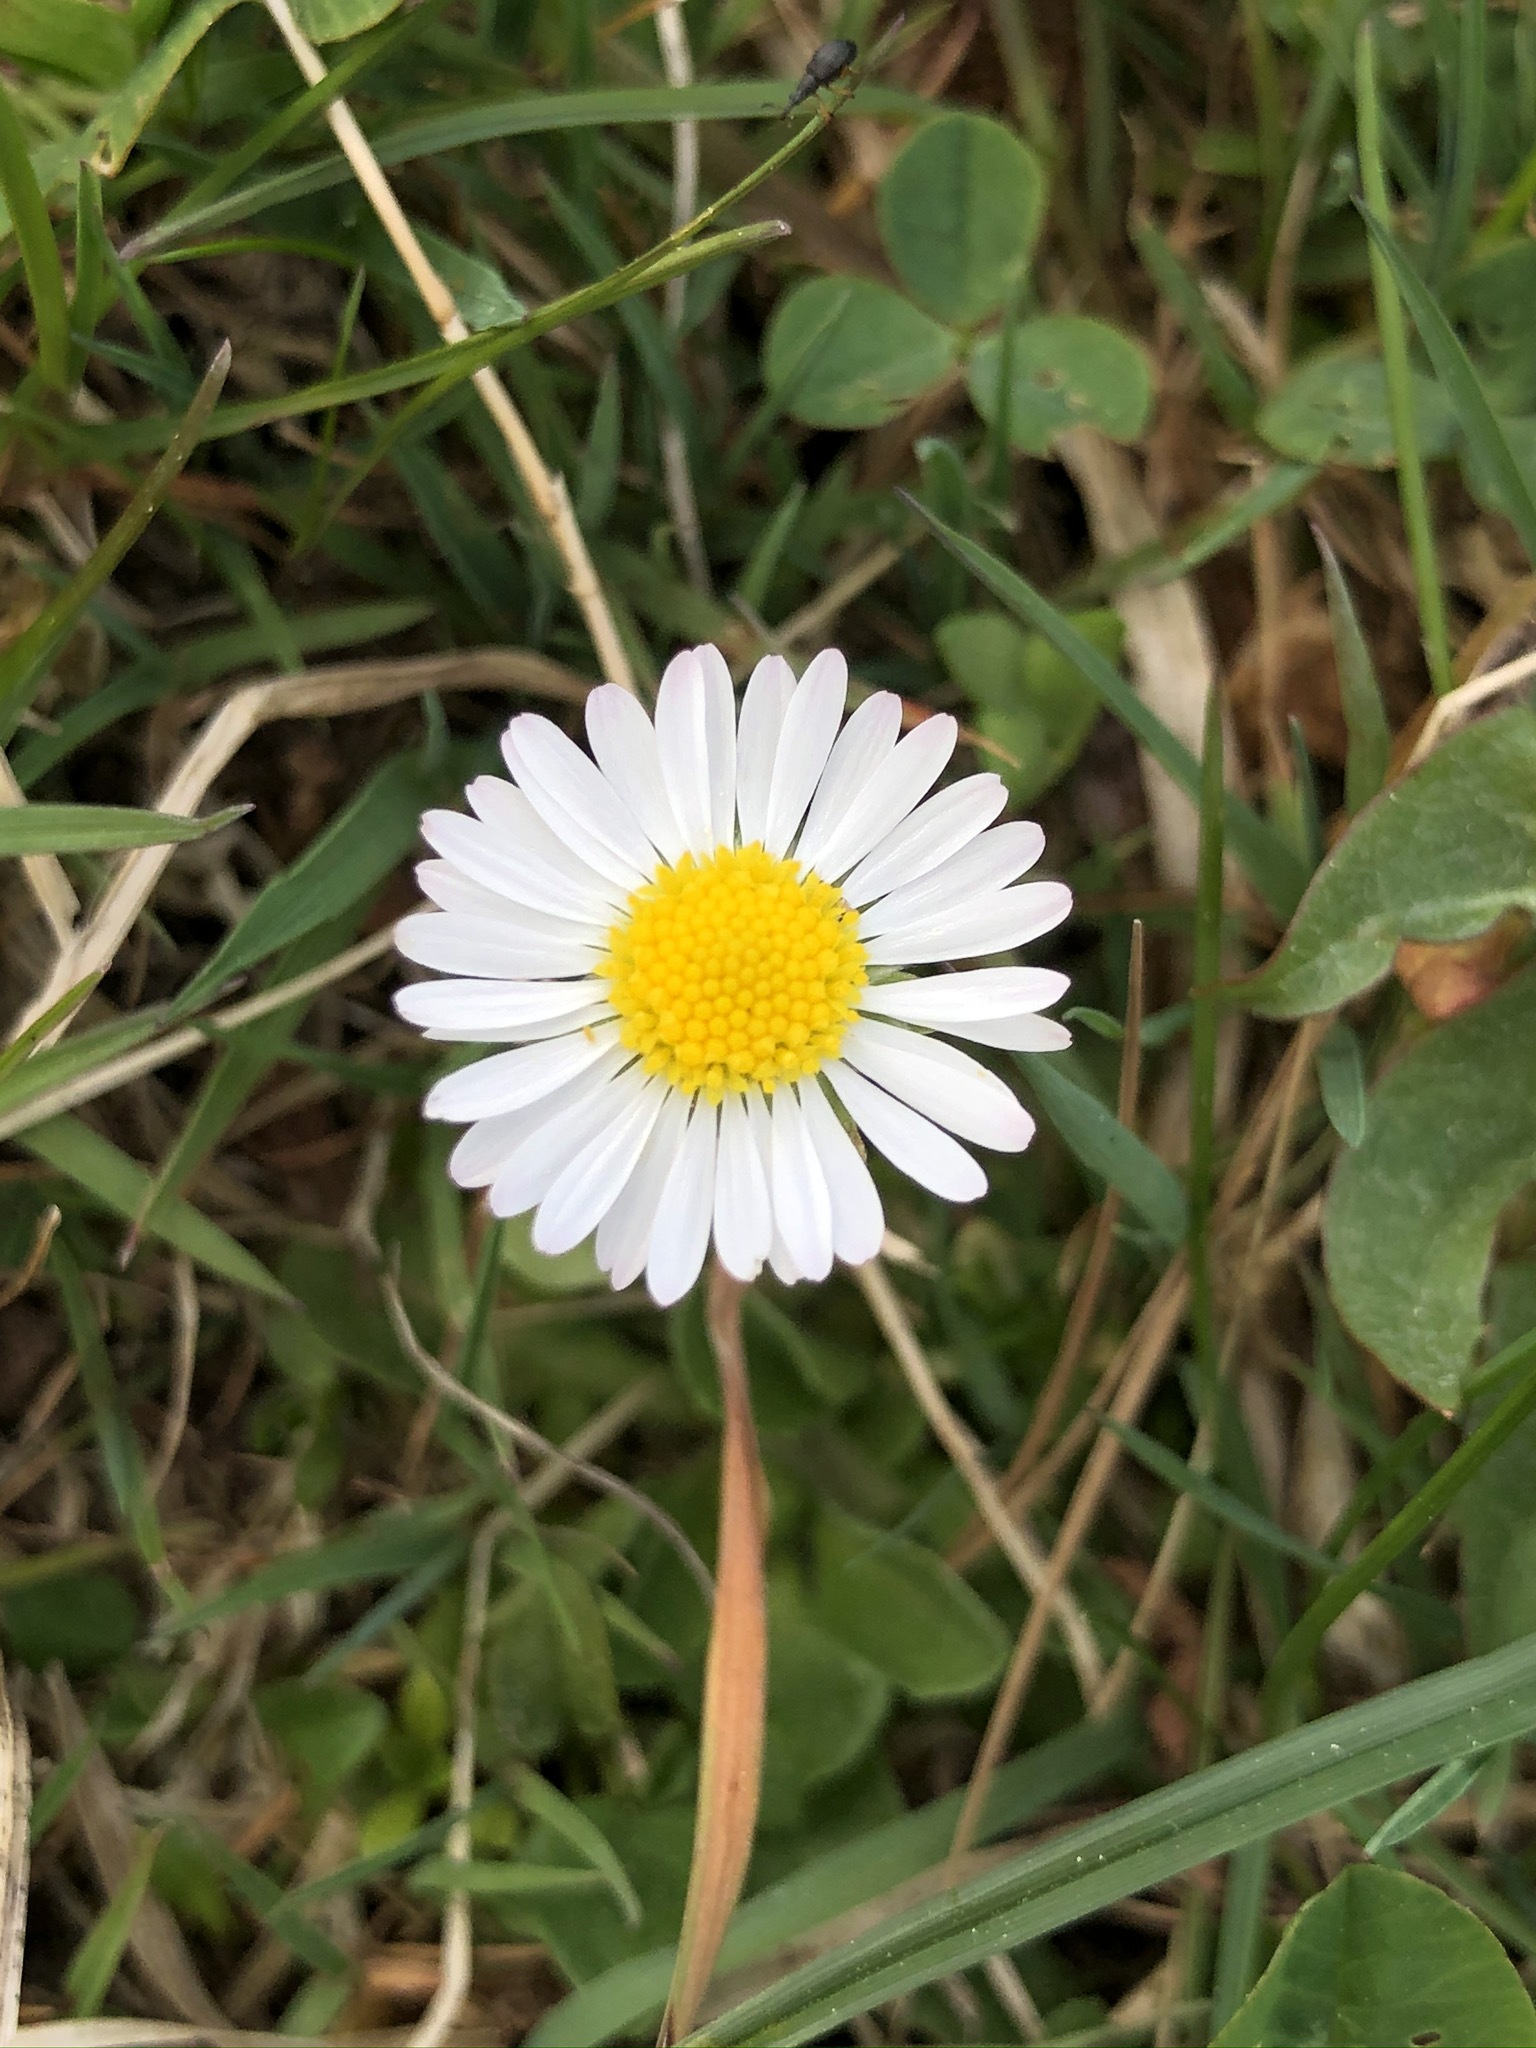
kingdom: Plantae
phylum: Tracheophyta
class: Magnoliopsida
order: Asterales
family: Asteraceae
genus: Bellis
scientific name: Bellis perennis
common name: Lawndaisy
